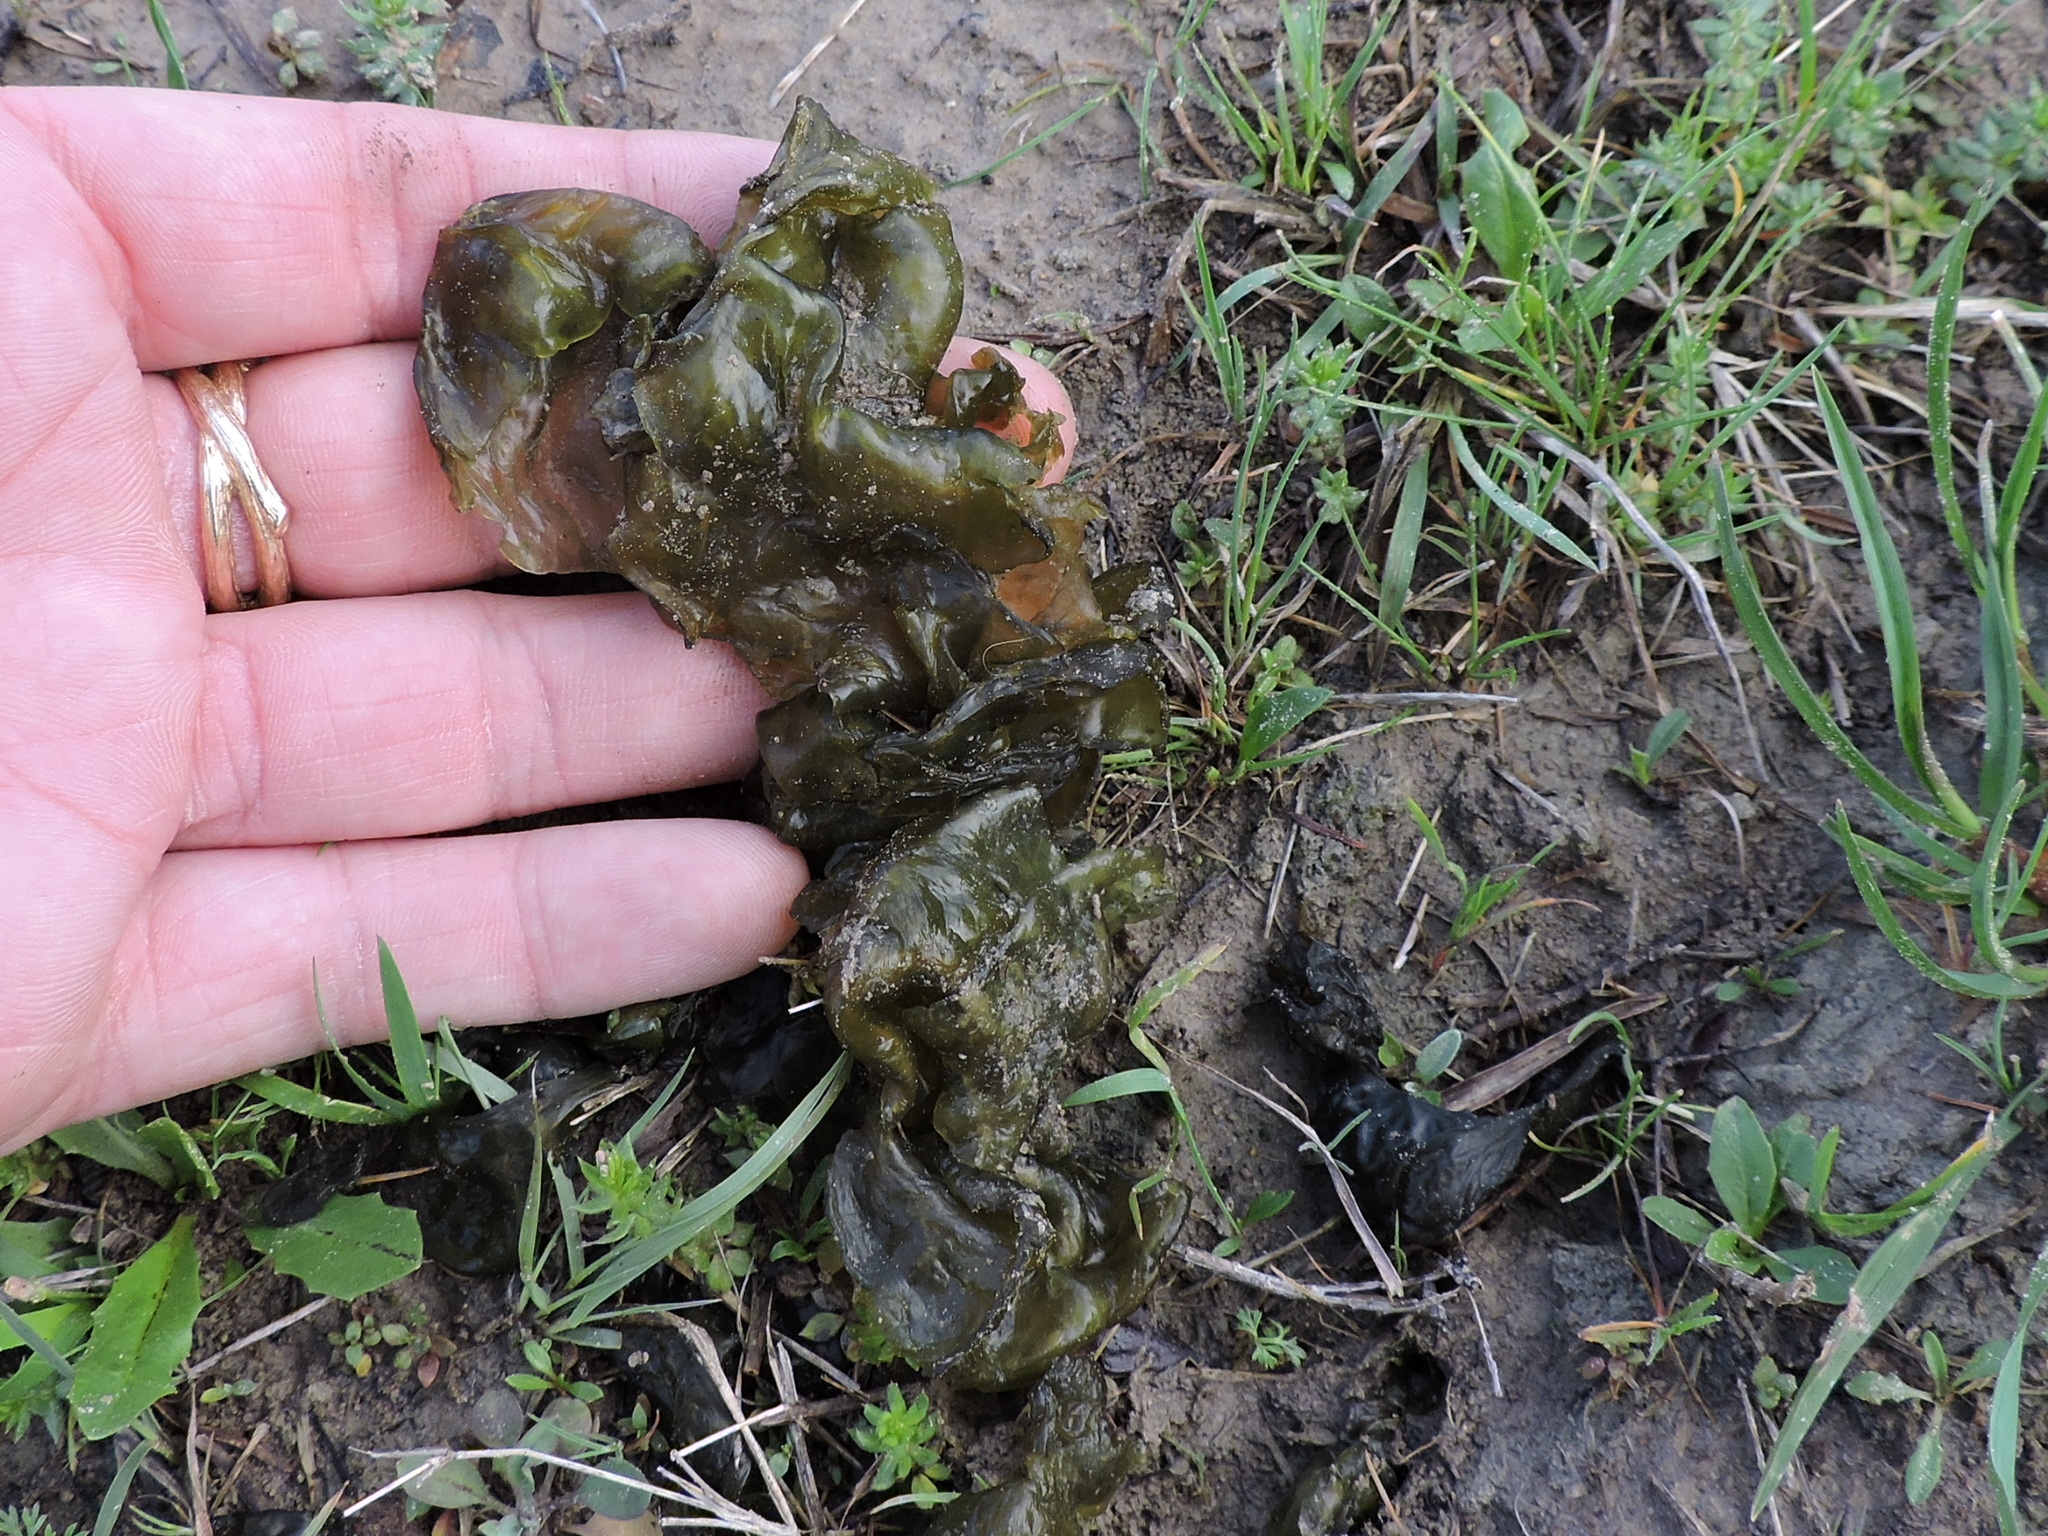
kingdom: Bacteria
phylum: Cyanobacteria
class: Cyanobacteriia
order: Cyanobacteriales
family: Nostocaceae
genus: Nostoc
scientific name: Nostoc commune
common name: Star jelly
